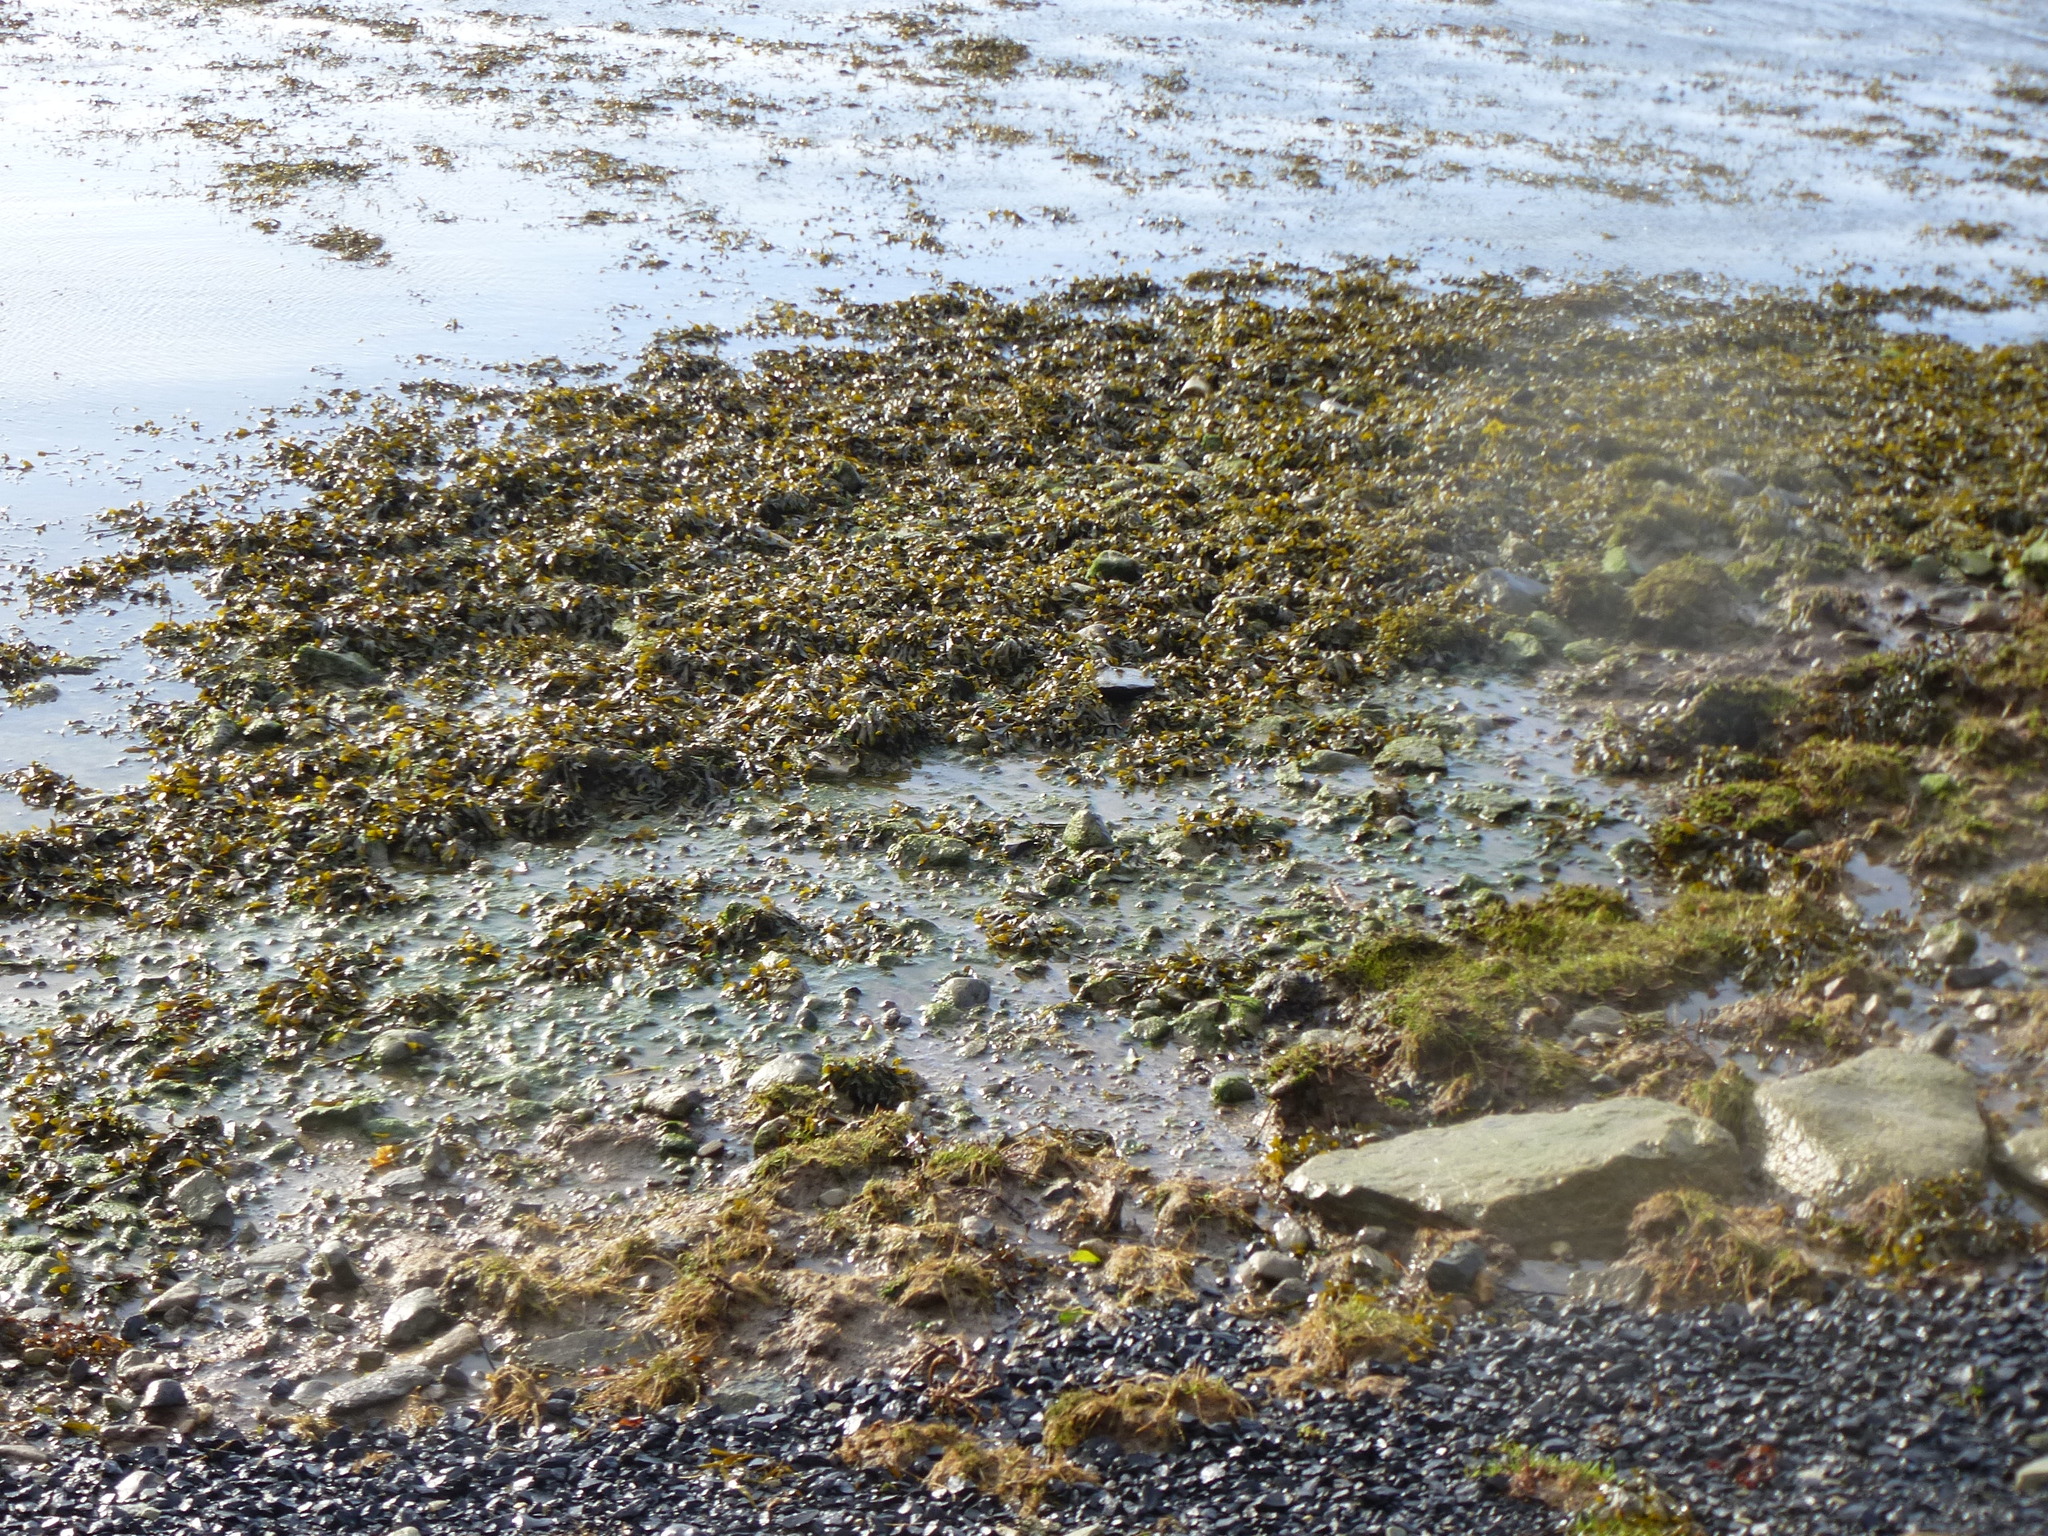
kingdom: Chromista
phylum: Ochrophyta
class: Phaeophyceae
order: Fucales
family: Fucaceae
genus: Ascophyllum
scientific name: Ascophyllum nodosum
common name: Knotted wrack
